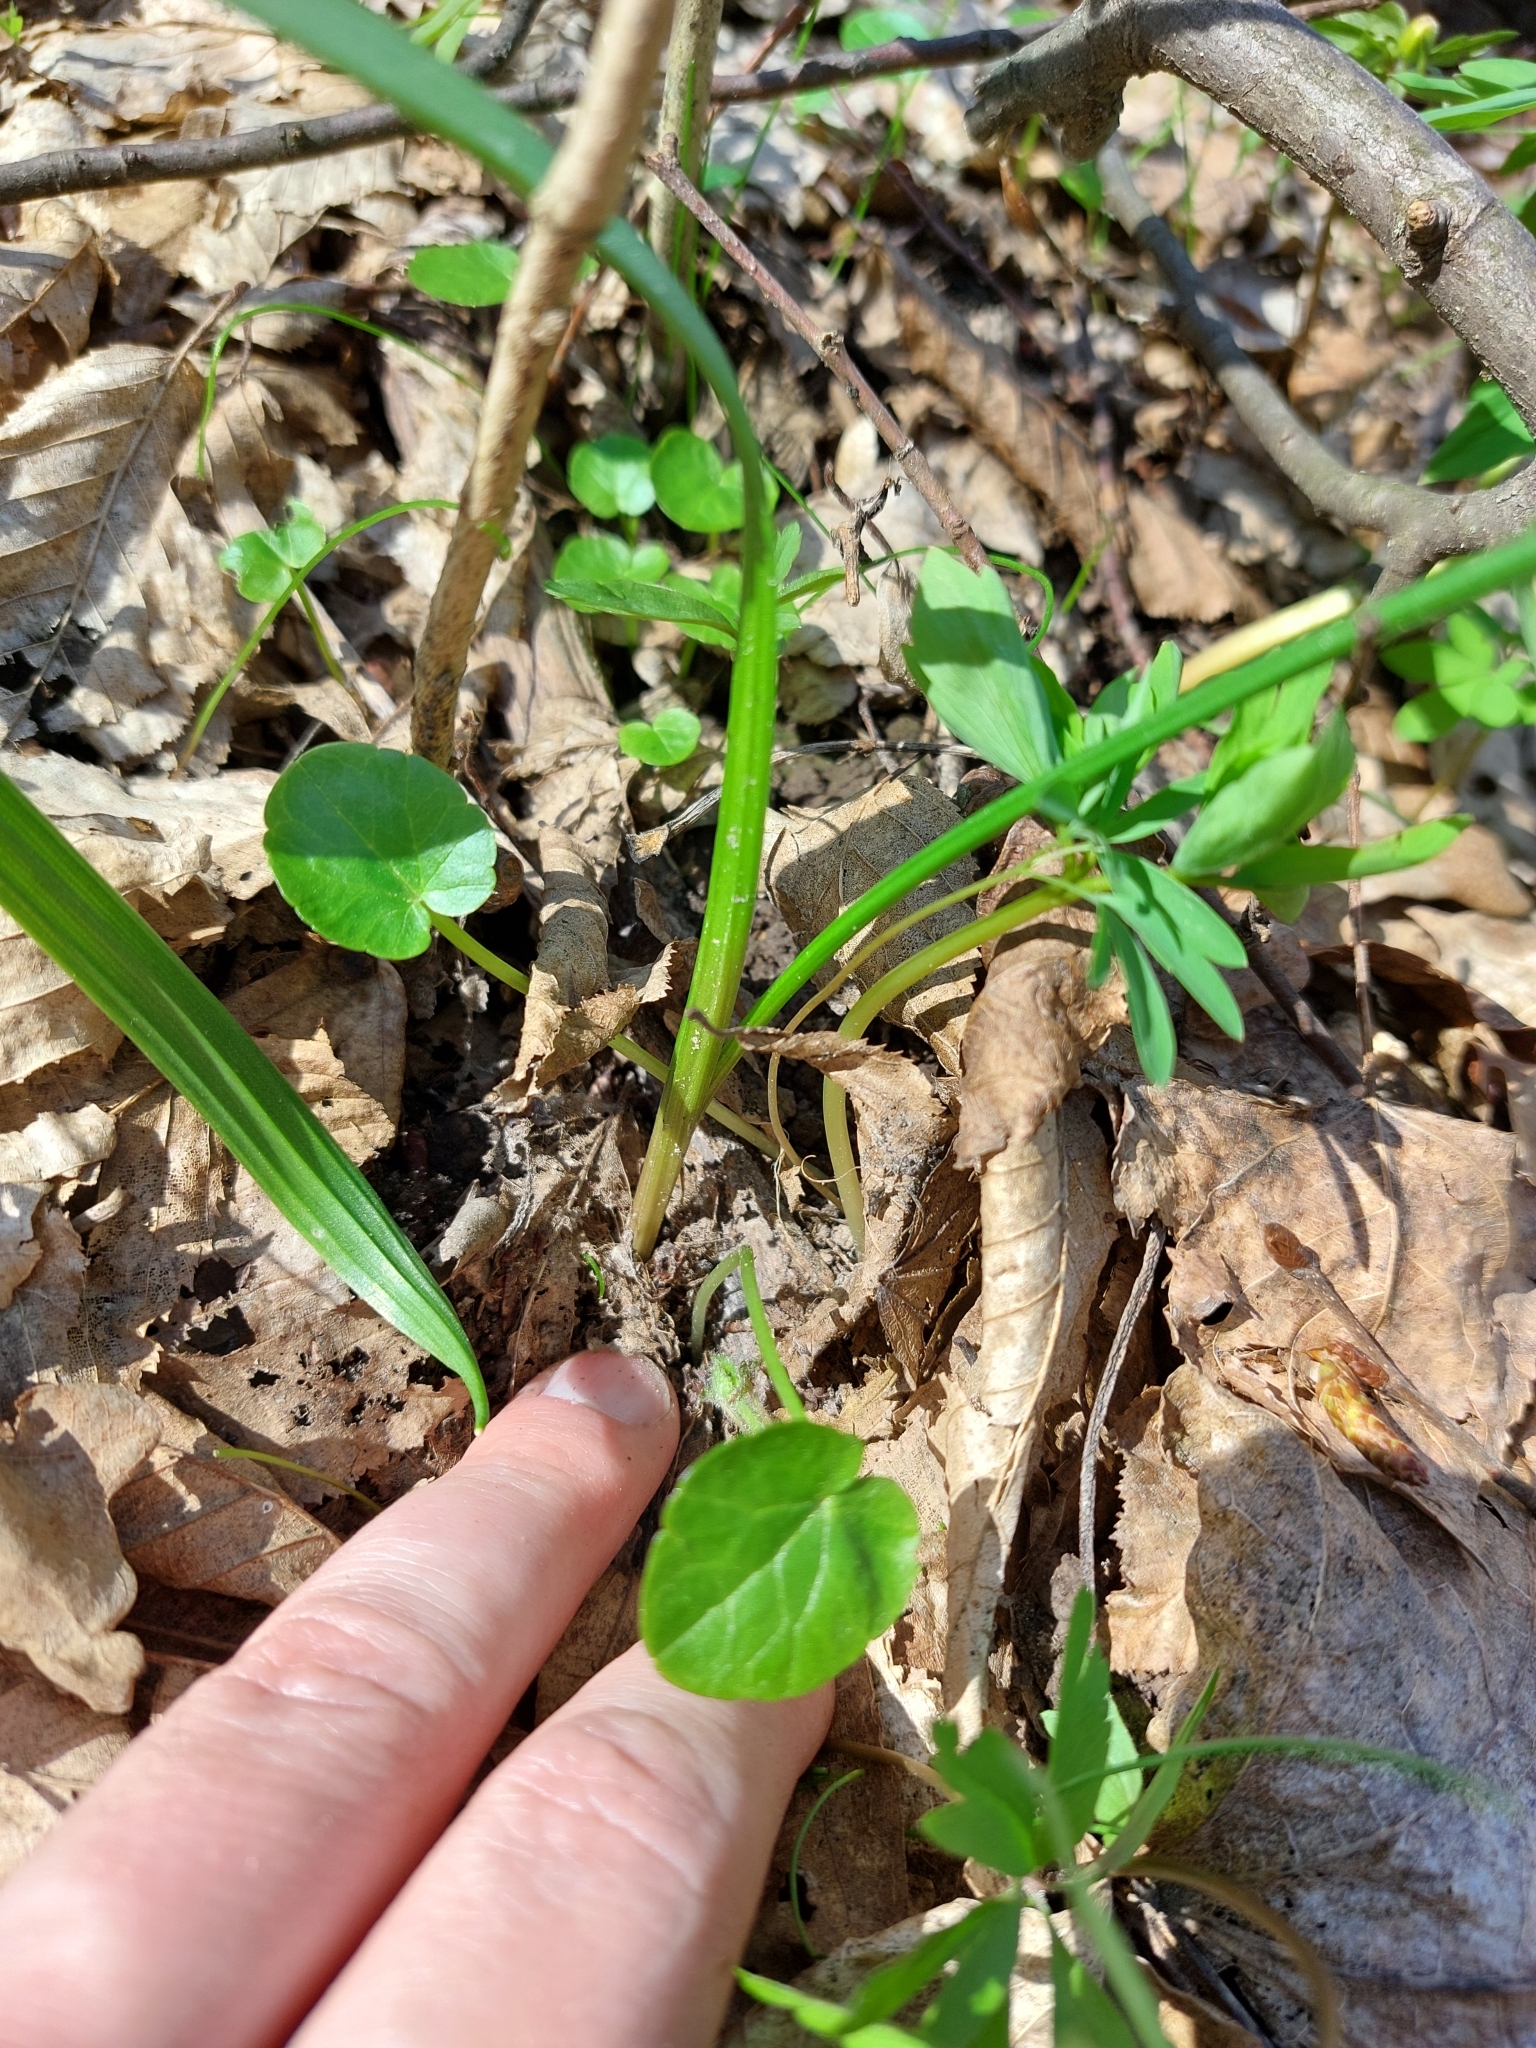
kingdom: Plantae
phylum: Tracheophyta
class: Liliopsida
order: Liliales
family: Liliaceae
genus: Gagea
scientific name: Gagea lutea
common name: Yellow star-of-bethlehem
